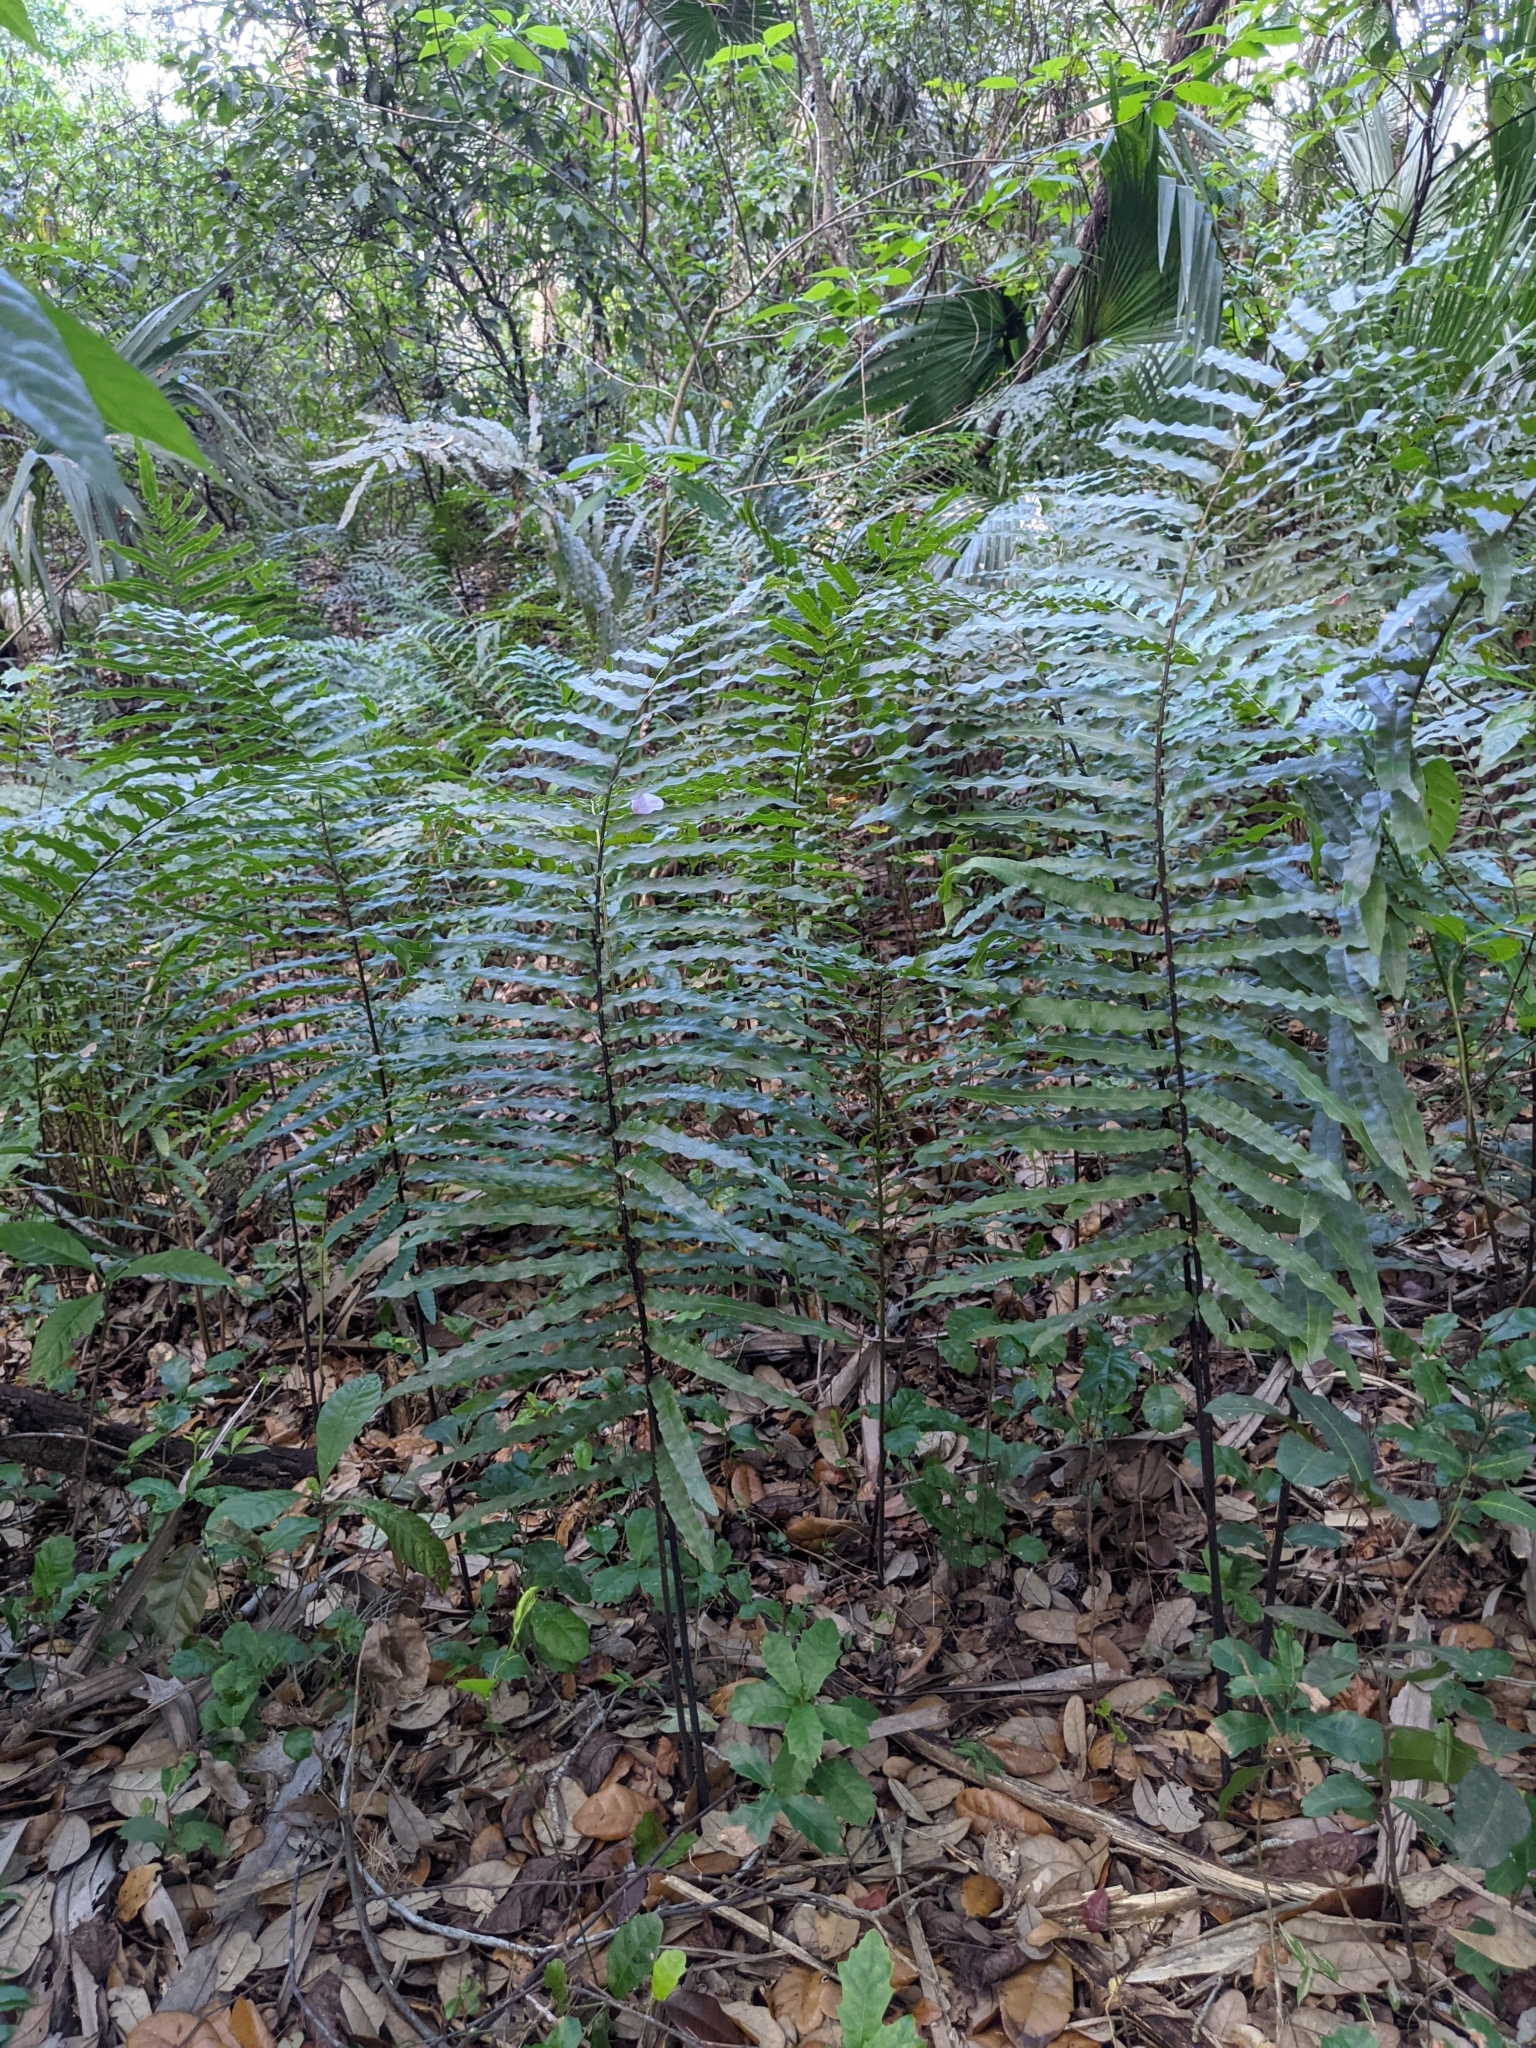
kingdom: Plantae
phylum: Tracheophyta
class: Polypodiopsida
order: Polypodiales
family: Blechnaceae
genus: Telmatoblechnum
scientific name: Telmatoblechnum serrulatum
